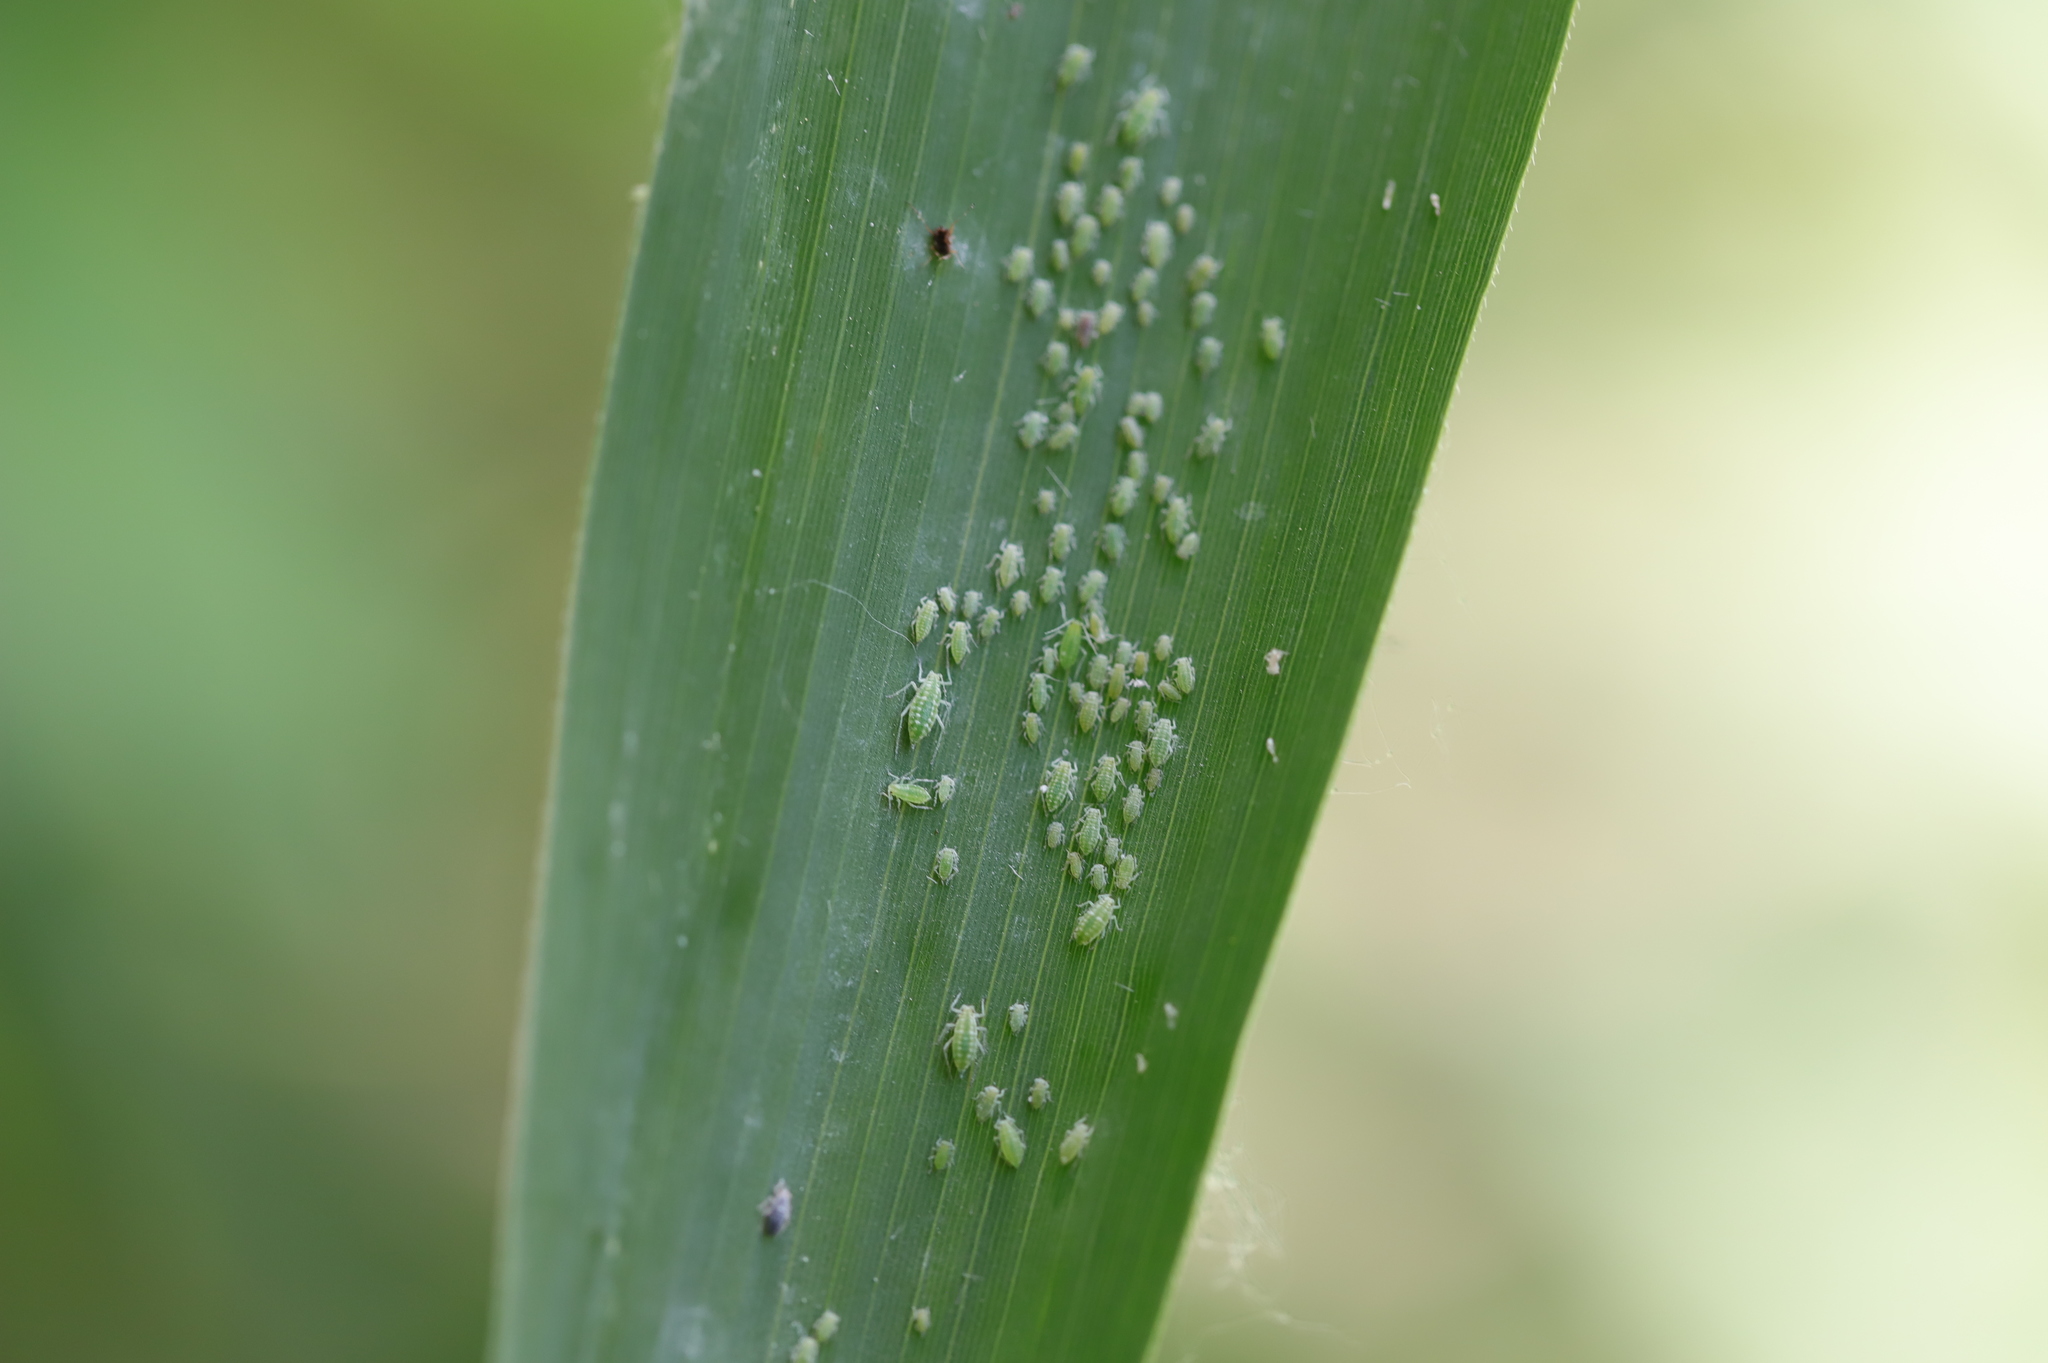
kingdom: Animalia
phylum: Arthropoda
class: Insecta
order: Hemiptera
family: Aphididae
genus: Hyalopterus
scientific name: Hyalopterus pruni
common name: Mealy plum aphid
